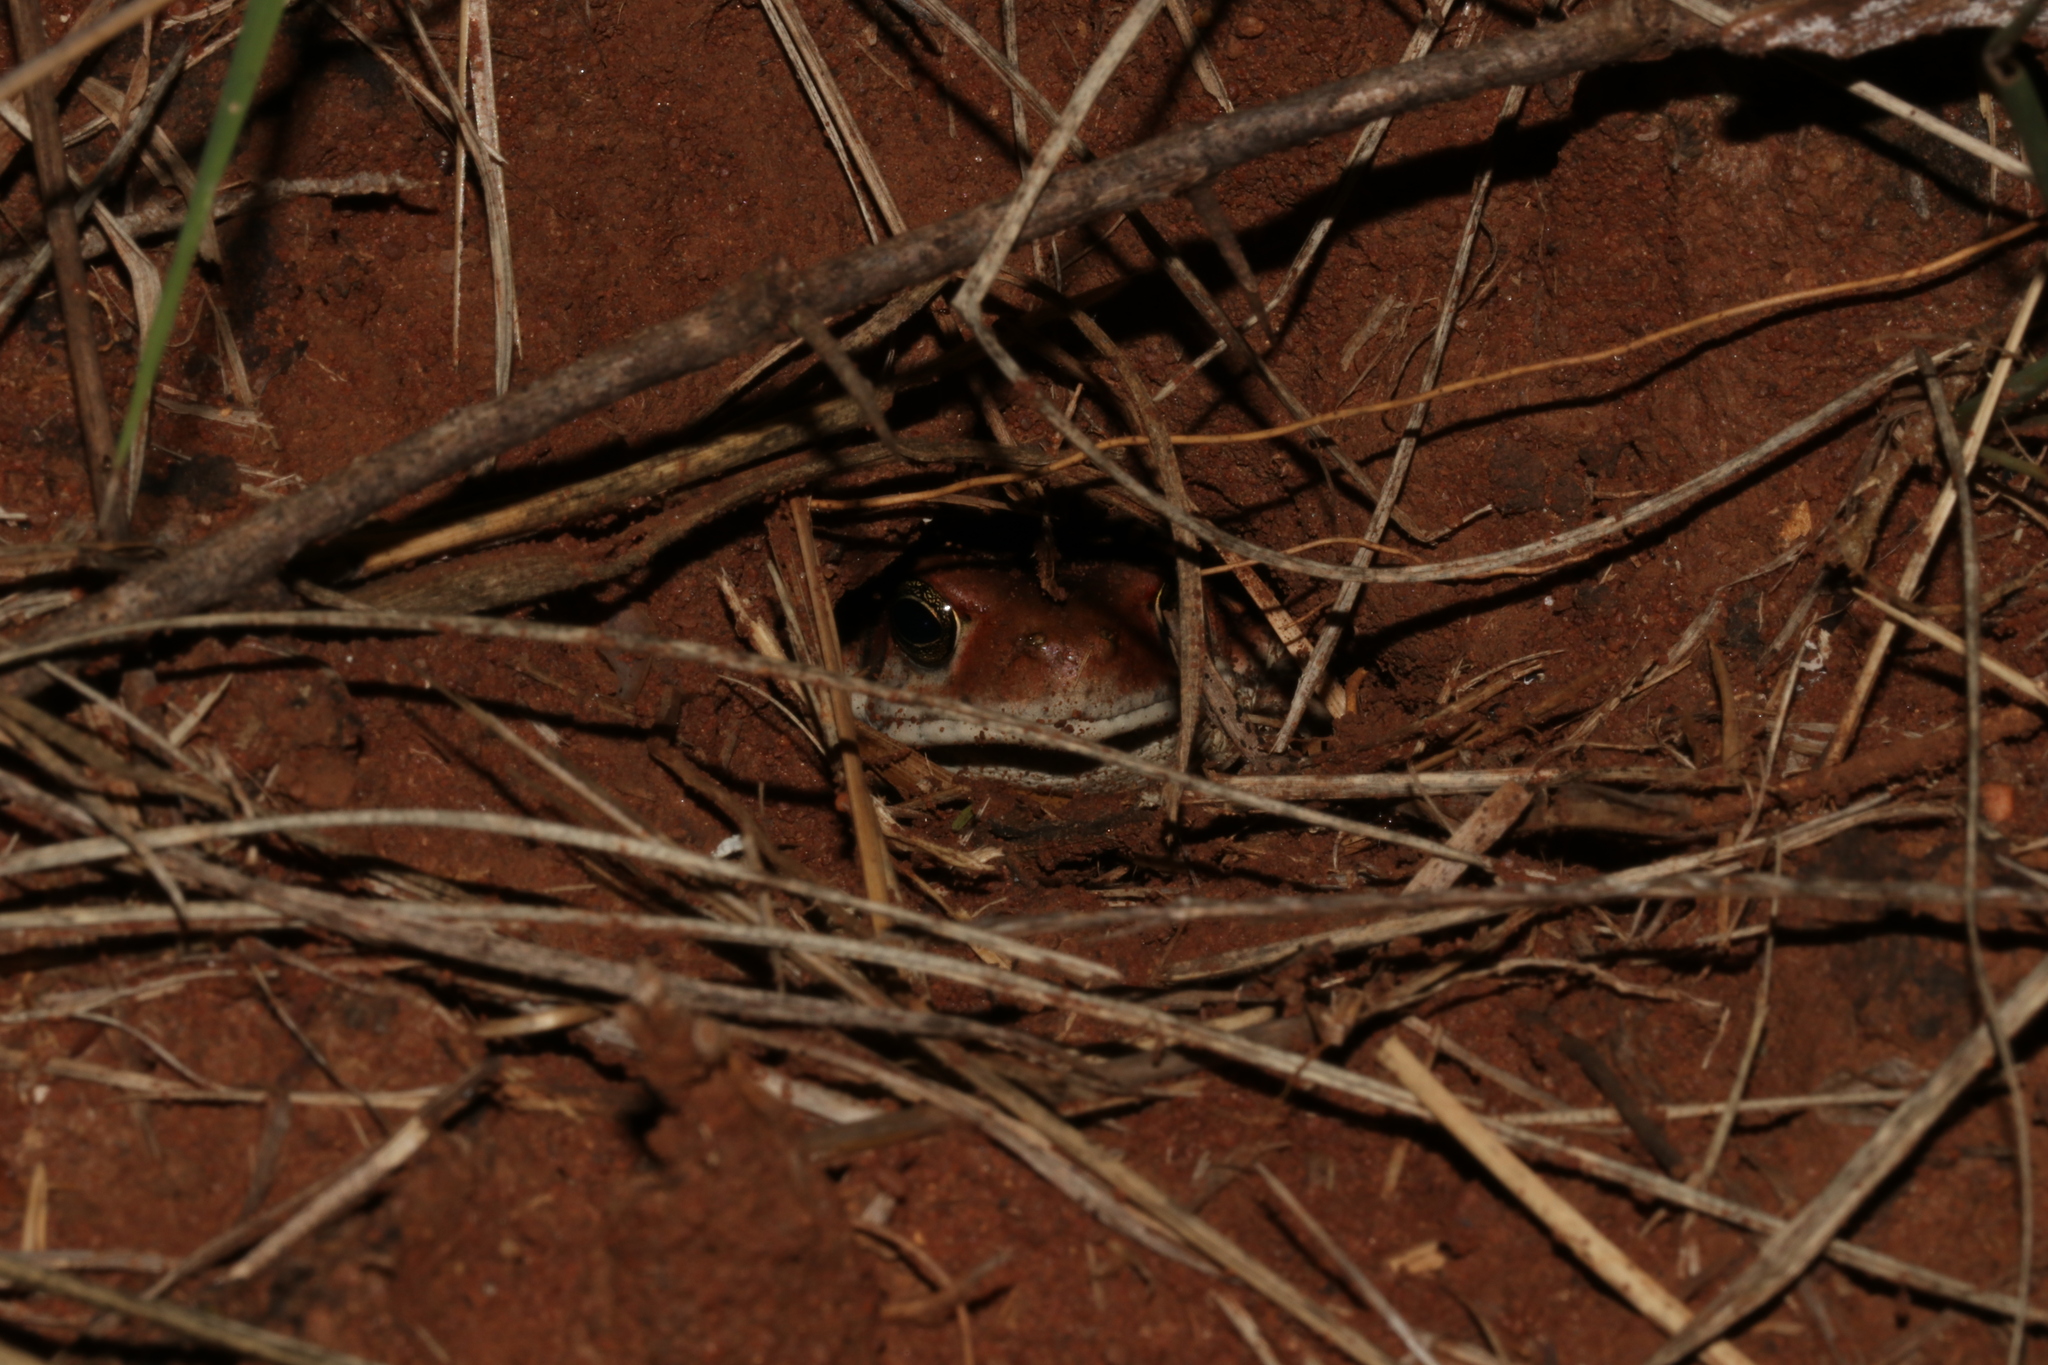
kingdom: Animalia
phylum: Chordata
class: Amphibia
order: Anura
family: Bufonidae
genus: Schismaderma
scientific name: Schismaderma carens
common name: African split-skin toad
